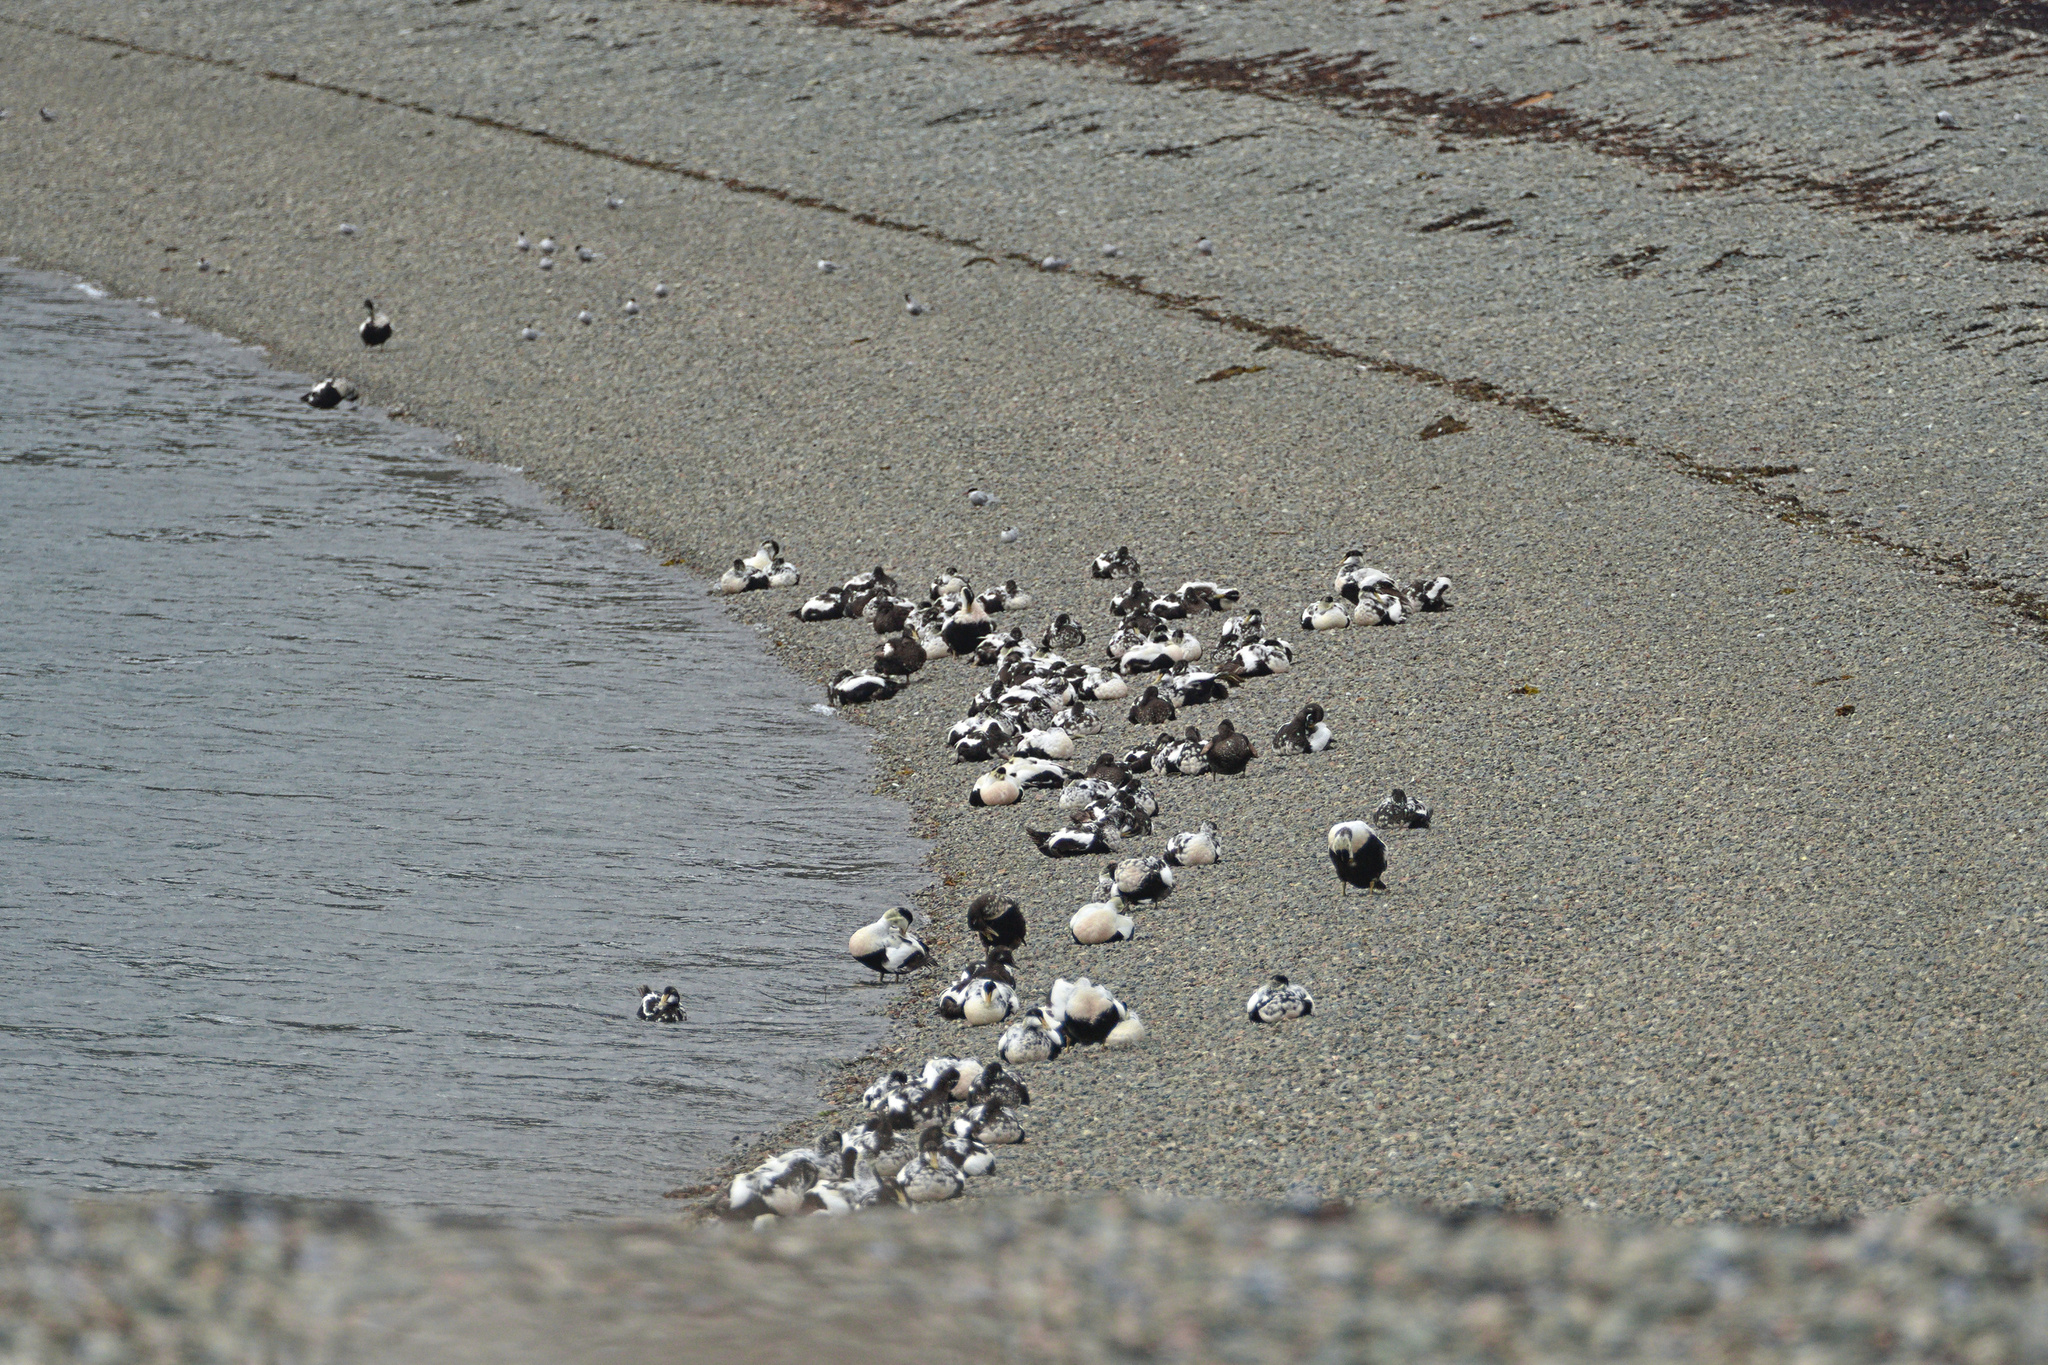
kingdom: Animalia
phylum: Chordata
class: Aves
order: Anseriformes
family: Anatidae
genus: Somateria
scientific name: Somateria mollissima
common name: Common eider
